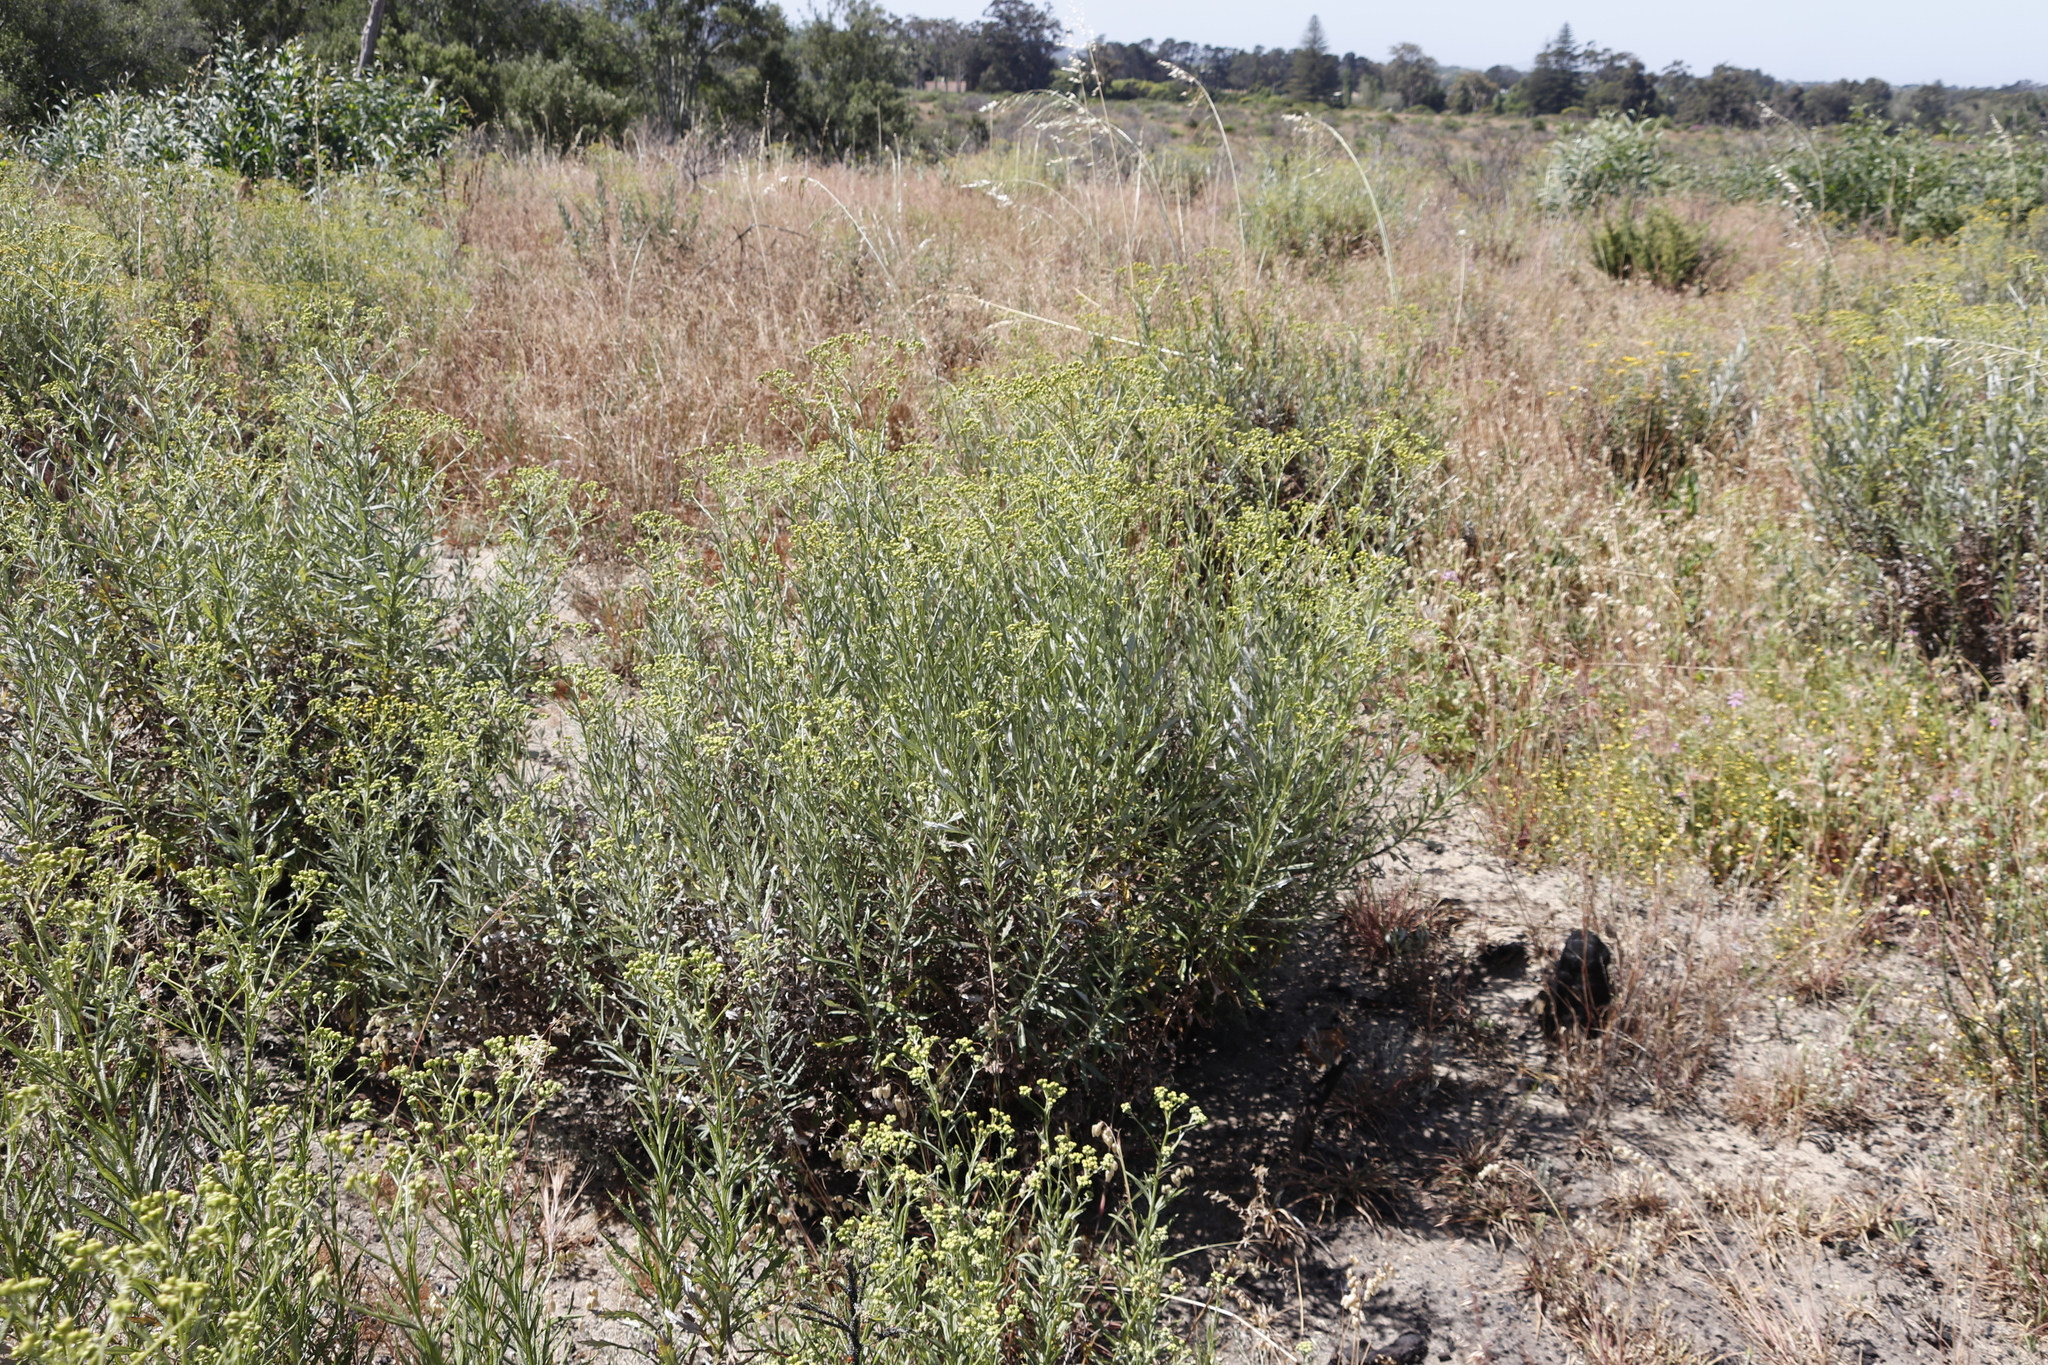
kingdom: Plantae
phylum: Tracheophyta
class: Magnoliopsida
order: Asterales
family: Asteraceae
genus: Senecio
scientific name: Senecio pterophorus
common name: Shoddy ragwort
